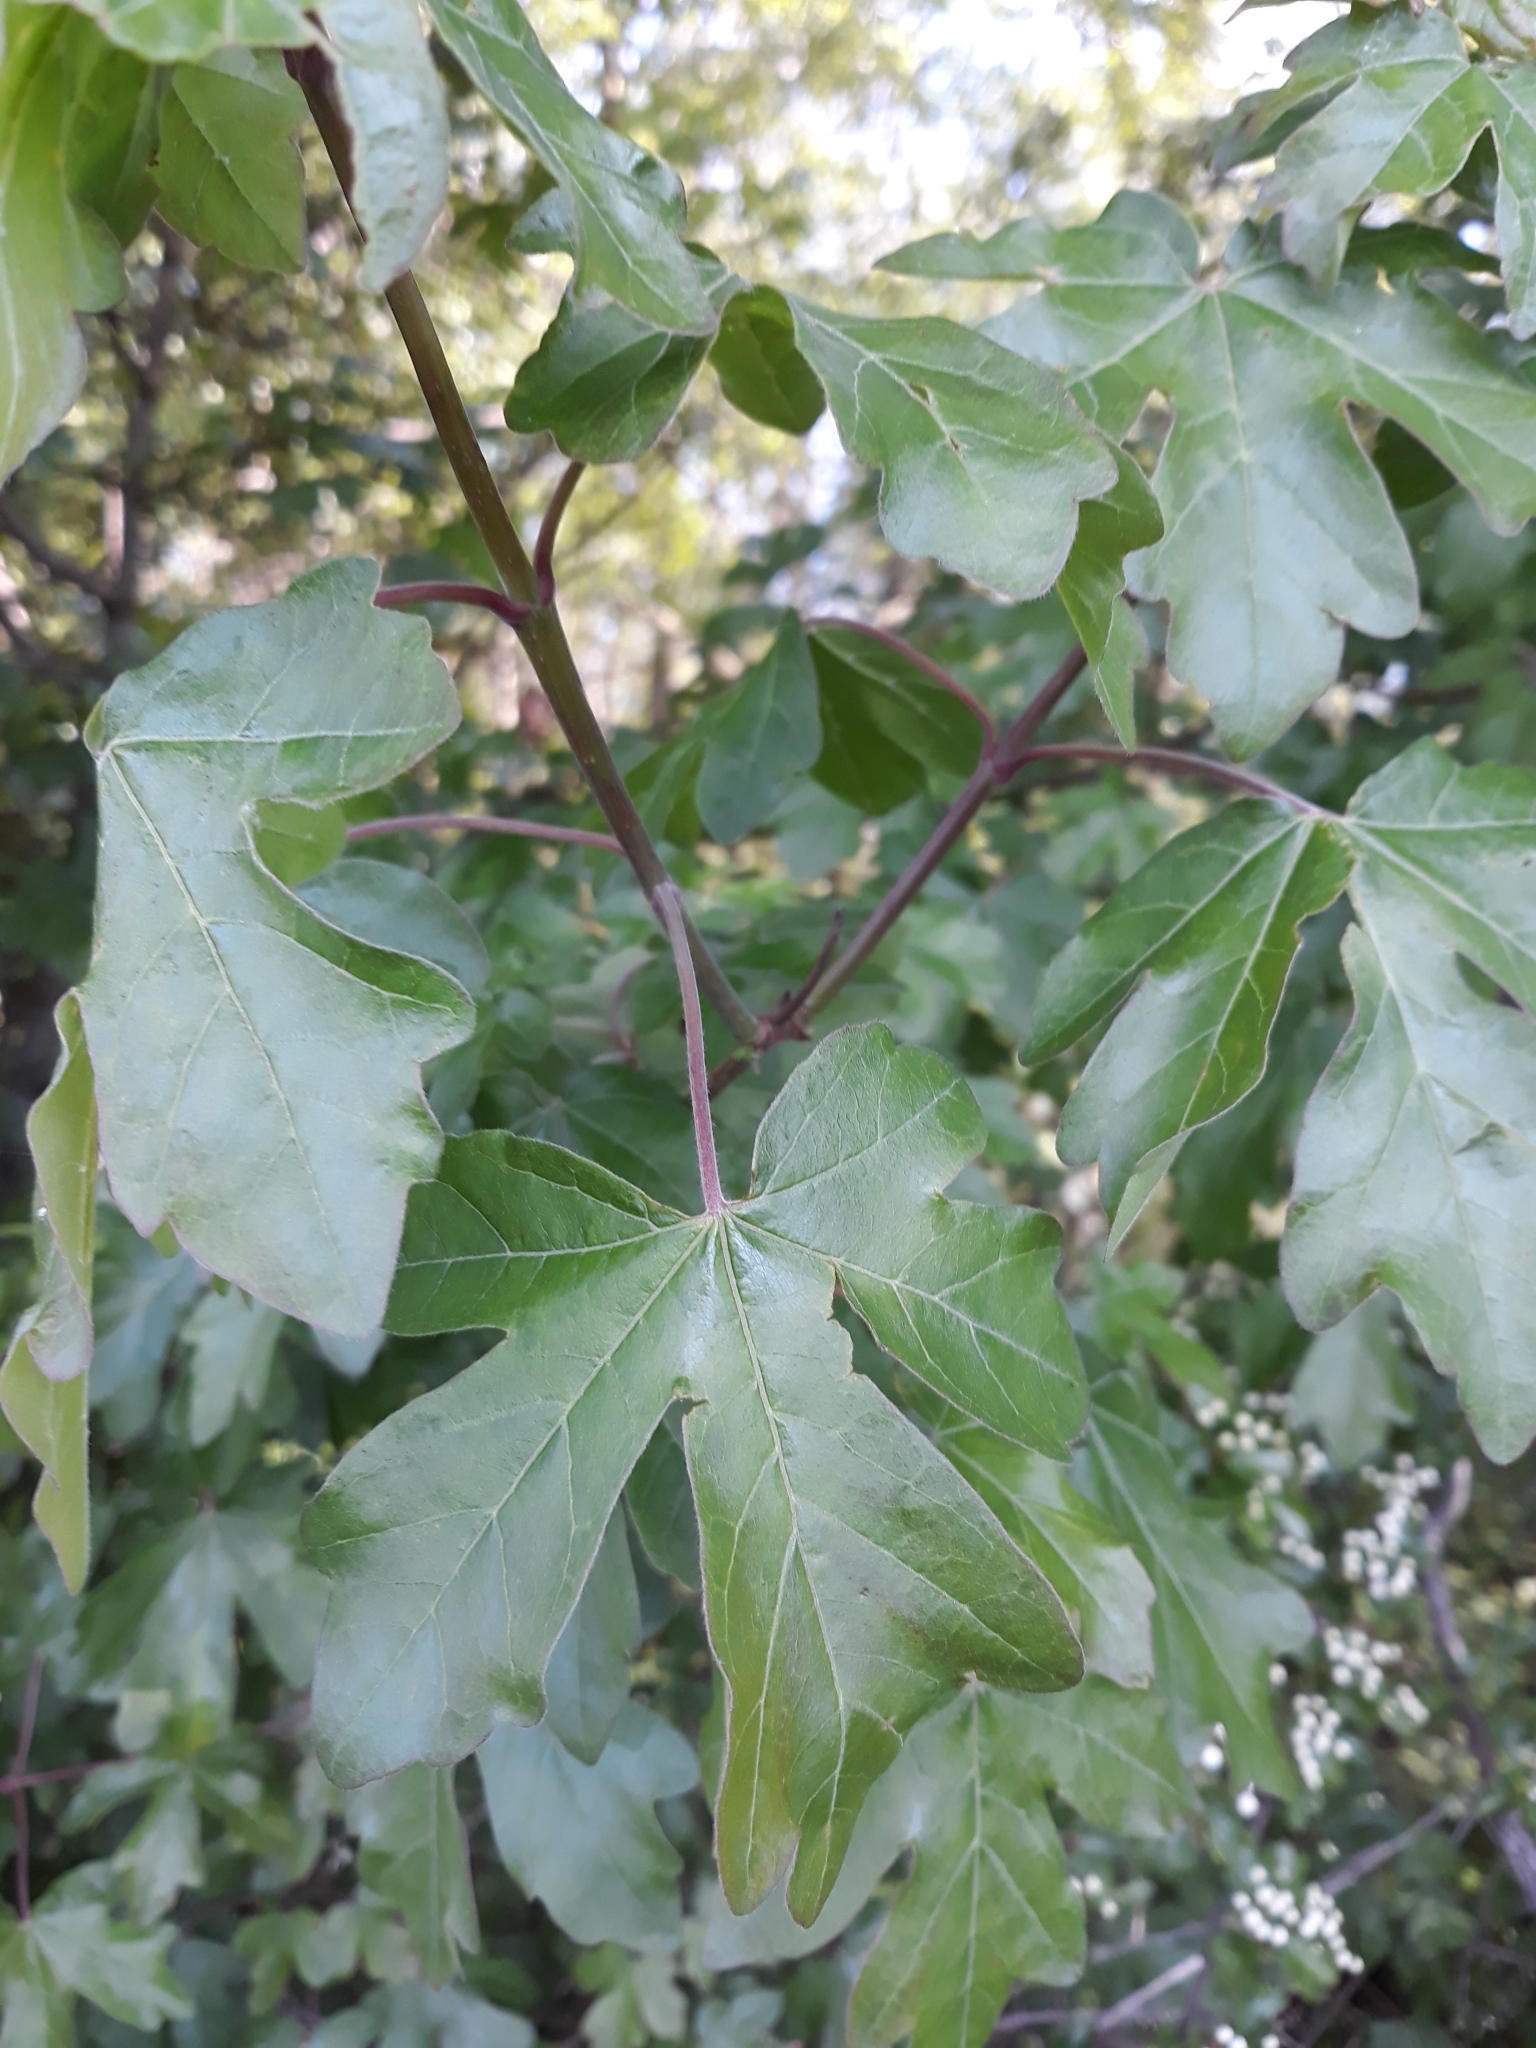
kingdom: Plantae
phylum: Tracheophyta
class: Magnoliopsida
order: Sapindales
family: Sapindaceae
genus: Acer
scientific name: Acer campestre
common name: Field maple
